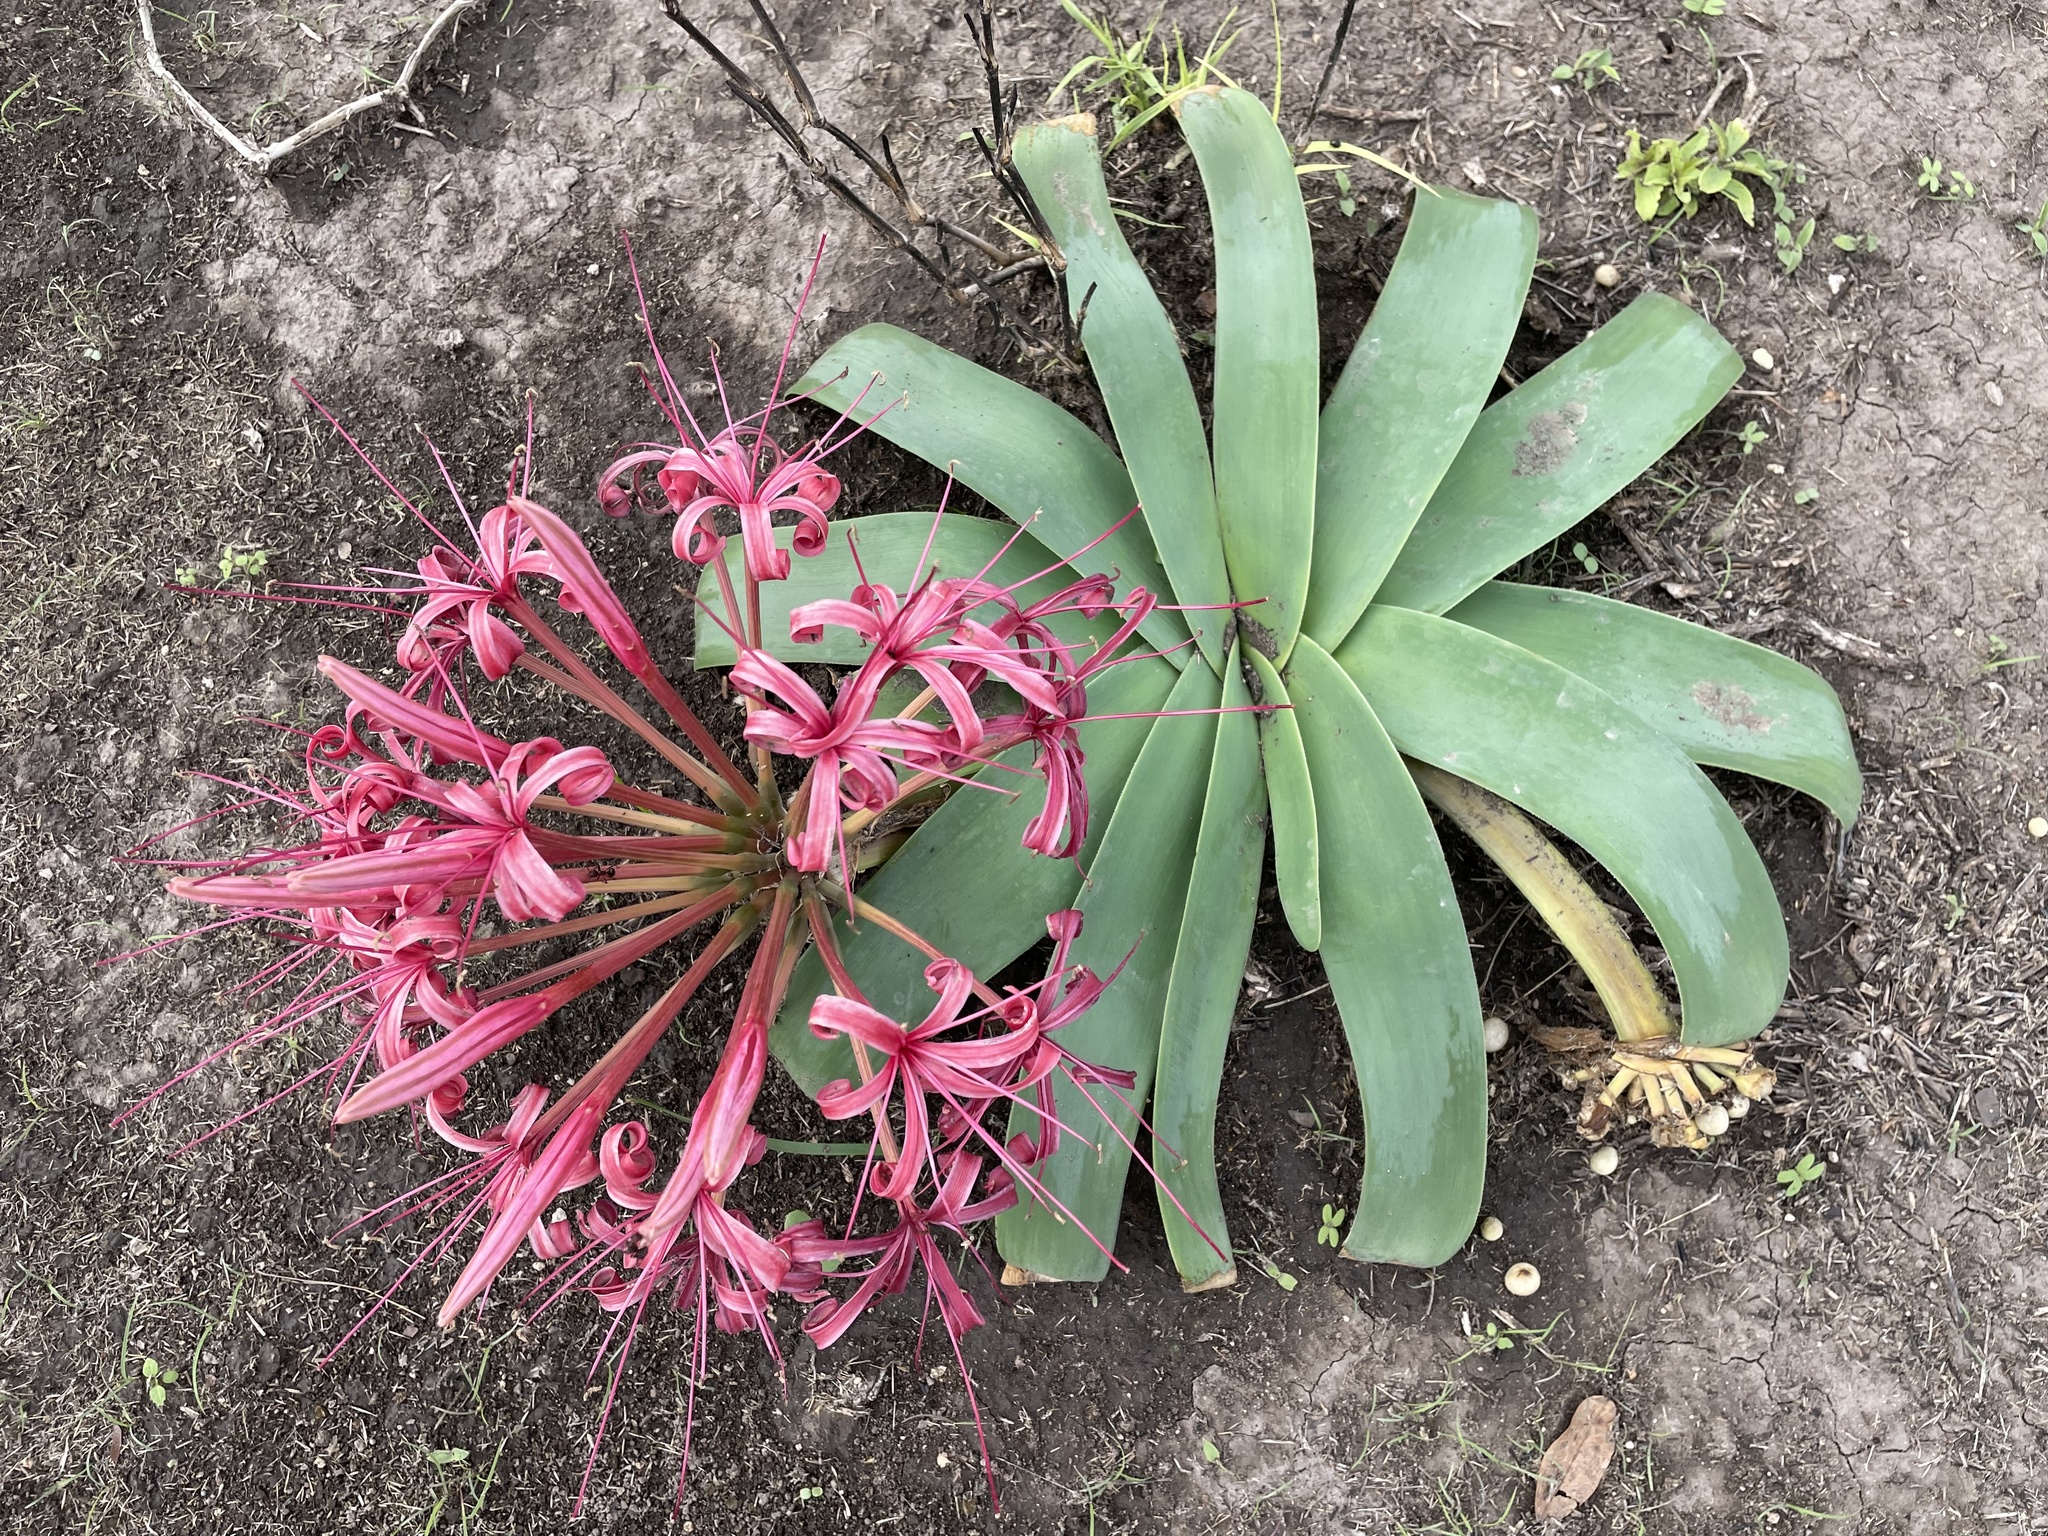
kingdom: Plantae
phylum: Tracheophyta
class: Liliopsida
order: Asparagales
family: Amaryllidaceae
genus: Ammocharis
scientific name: Ammocharis tinneana
